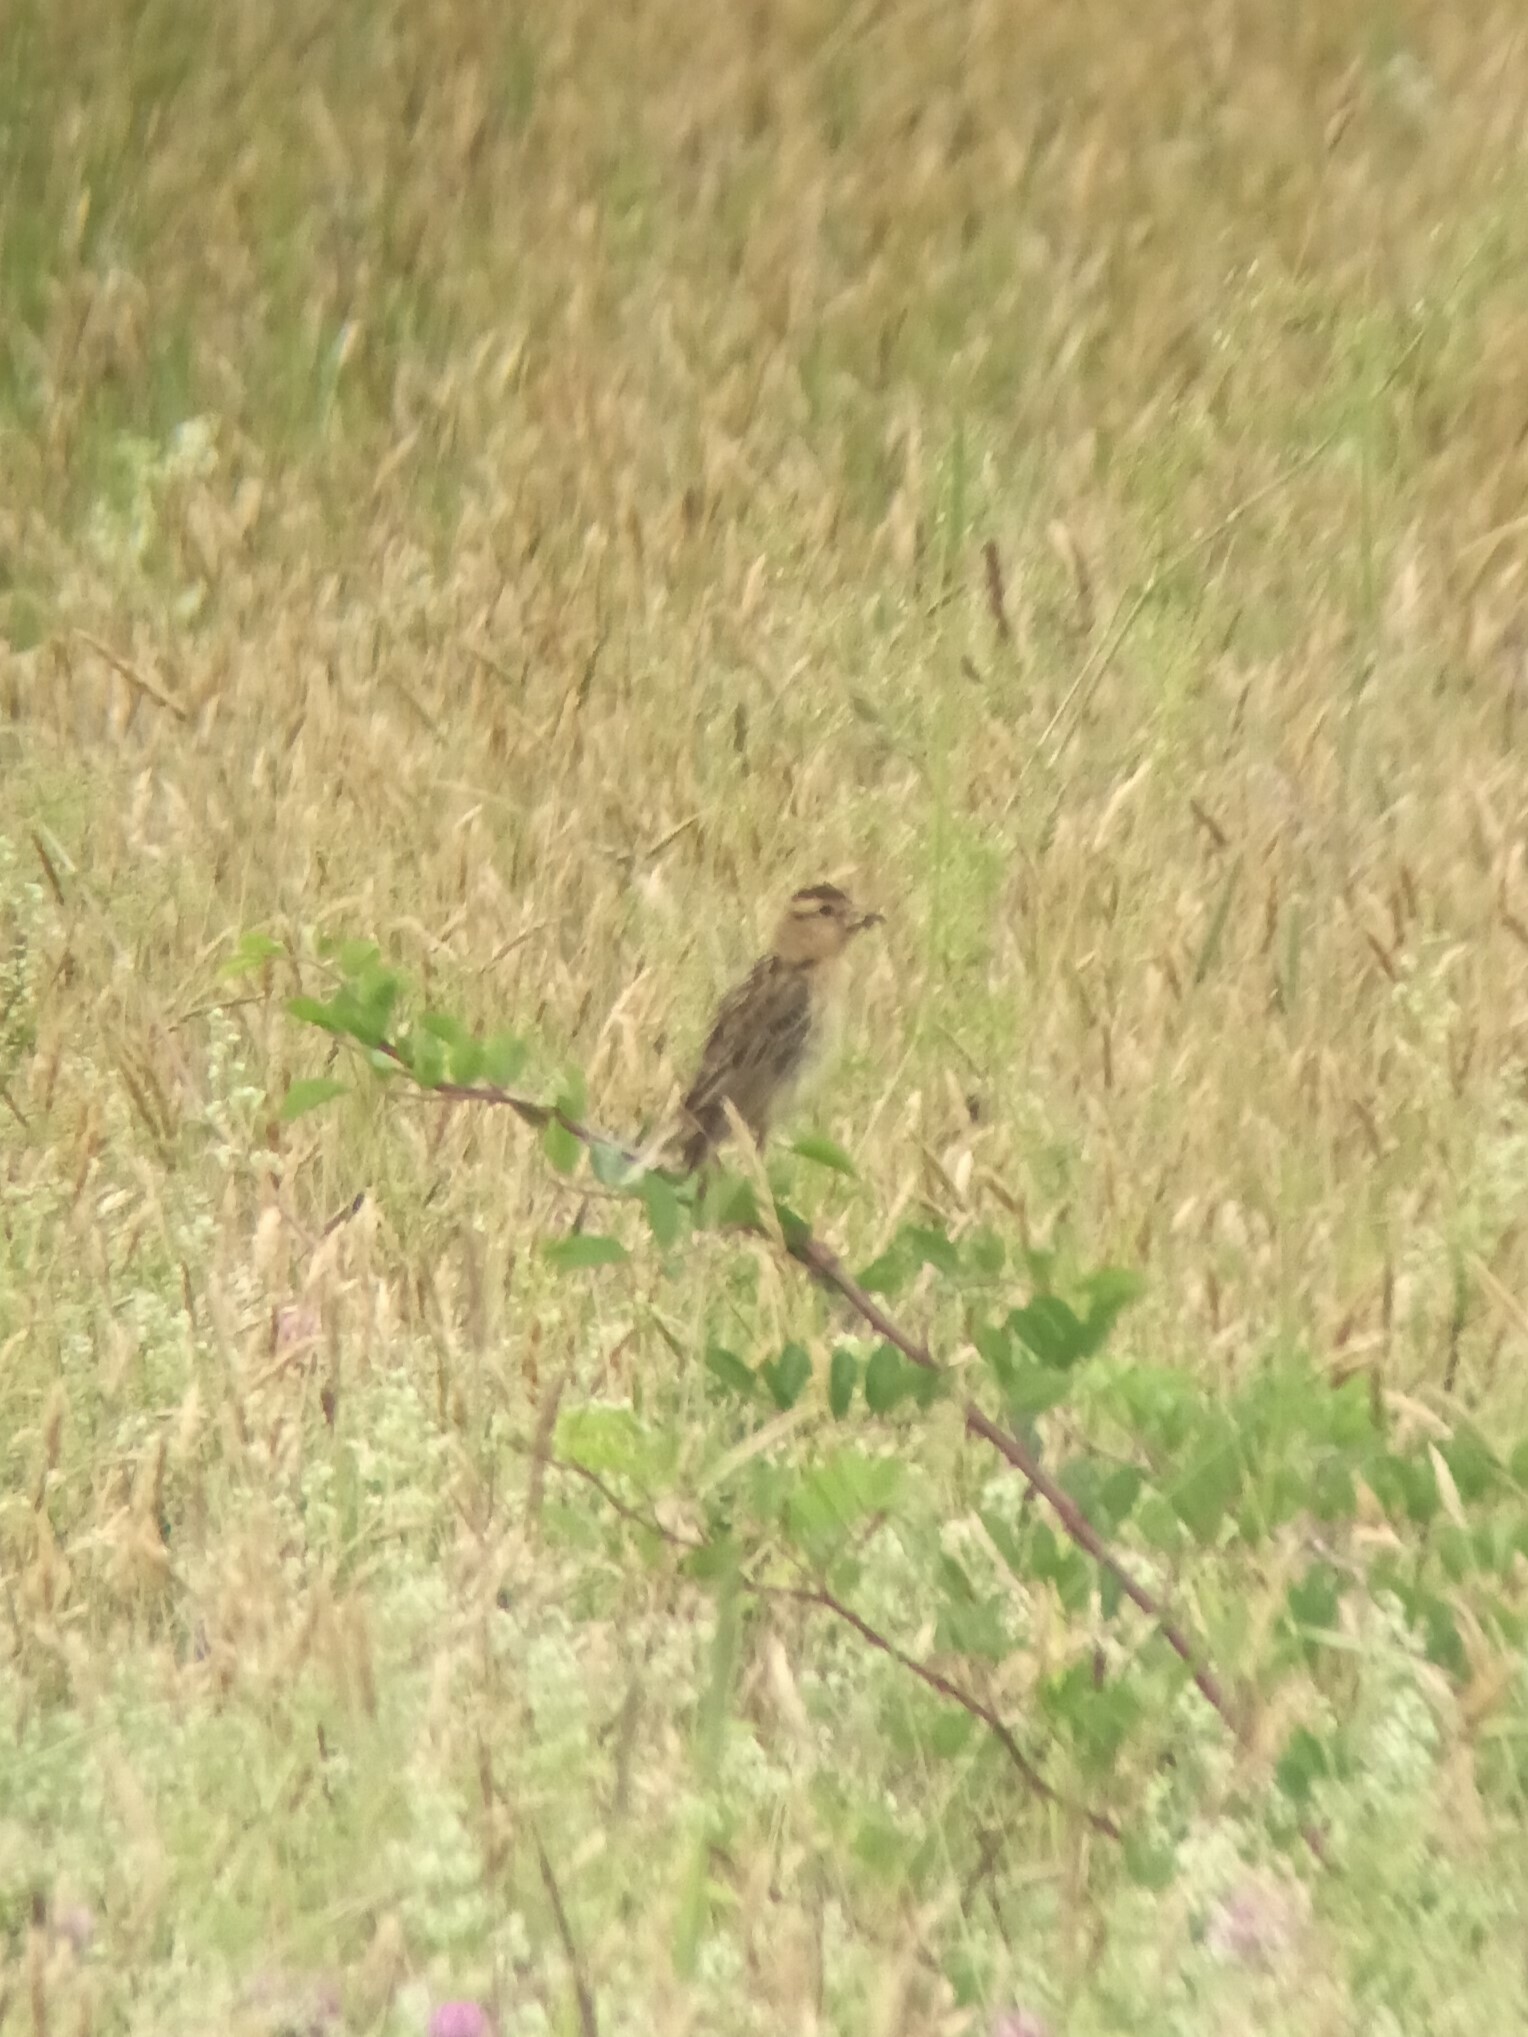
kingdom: Animalia
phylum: Chordata
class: Aves
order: Passeriformes
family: Icteridae
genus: Dolichonyx
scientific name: Dolichonyx oryzivorus
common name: Bobolink
